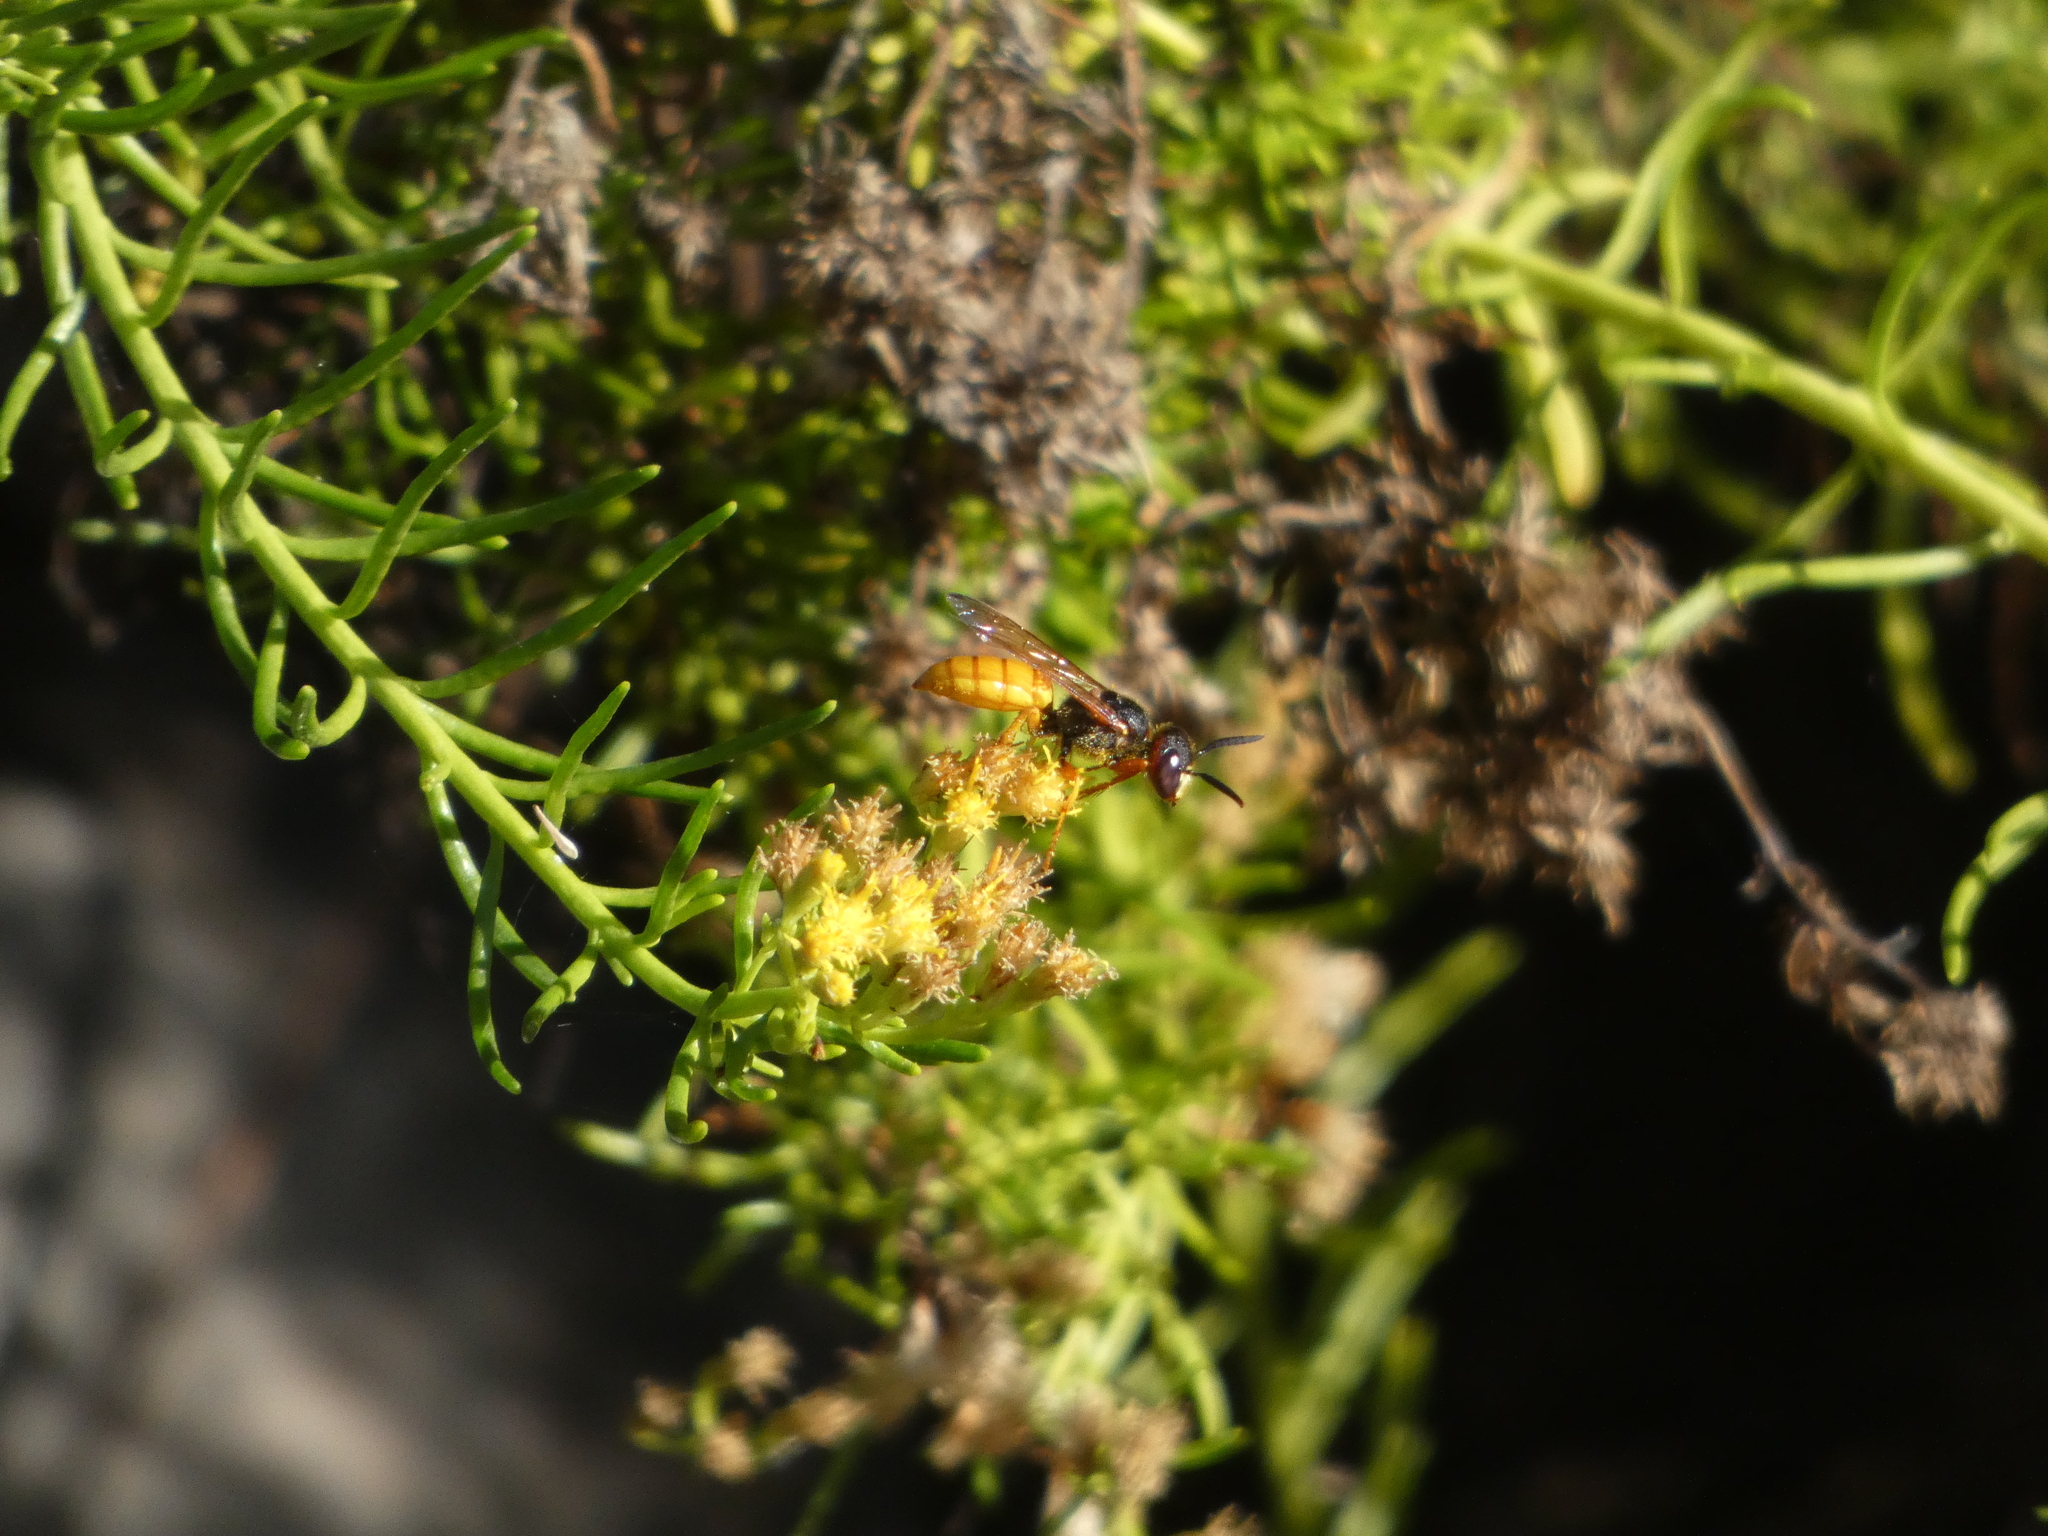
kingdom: Animalia
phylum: Arthropoda
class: Insecta
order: Hymenoptera
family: Crabronidae
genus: Philanthus
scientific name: Philanthus triangulum
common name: Bee wolf
